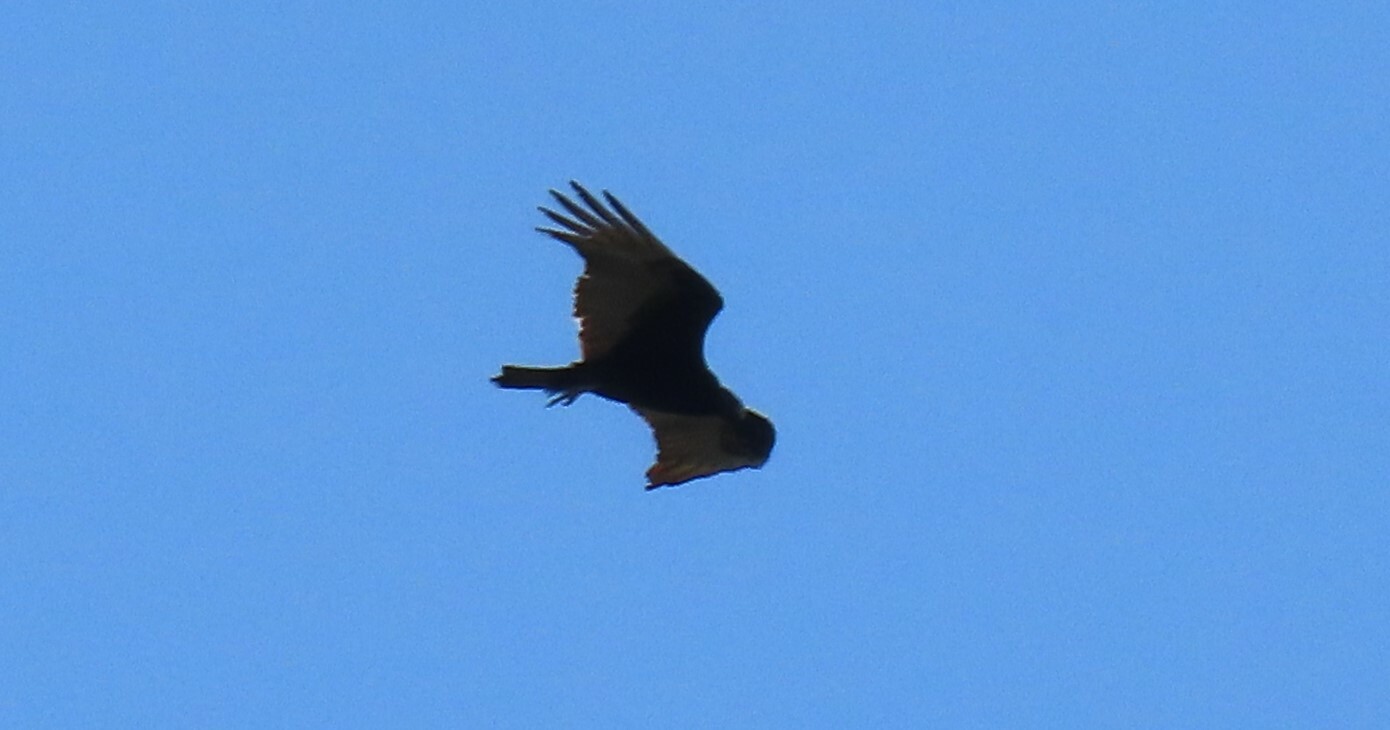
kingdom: Animalia
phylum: Chordata
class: Aves
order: Accipitriformes
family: Cathartidae
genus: Cathartes
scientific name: Cathartes aura
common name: Turkey vulture
